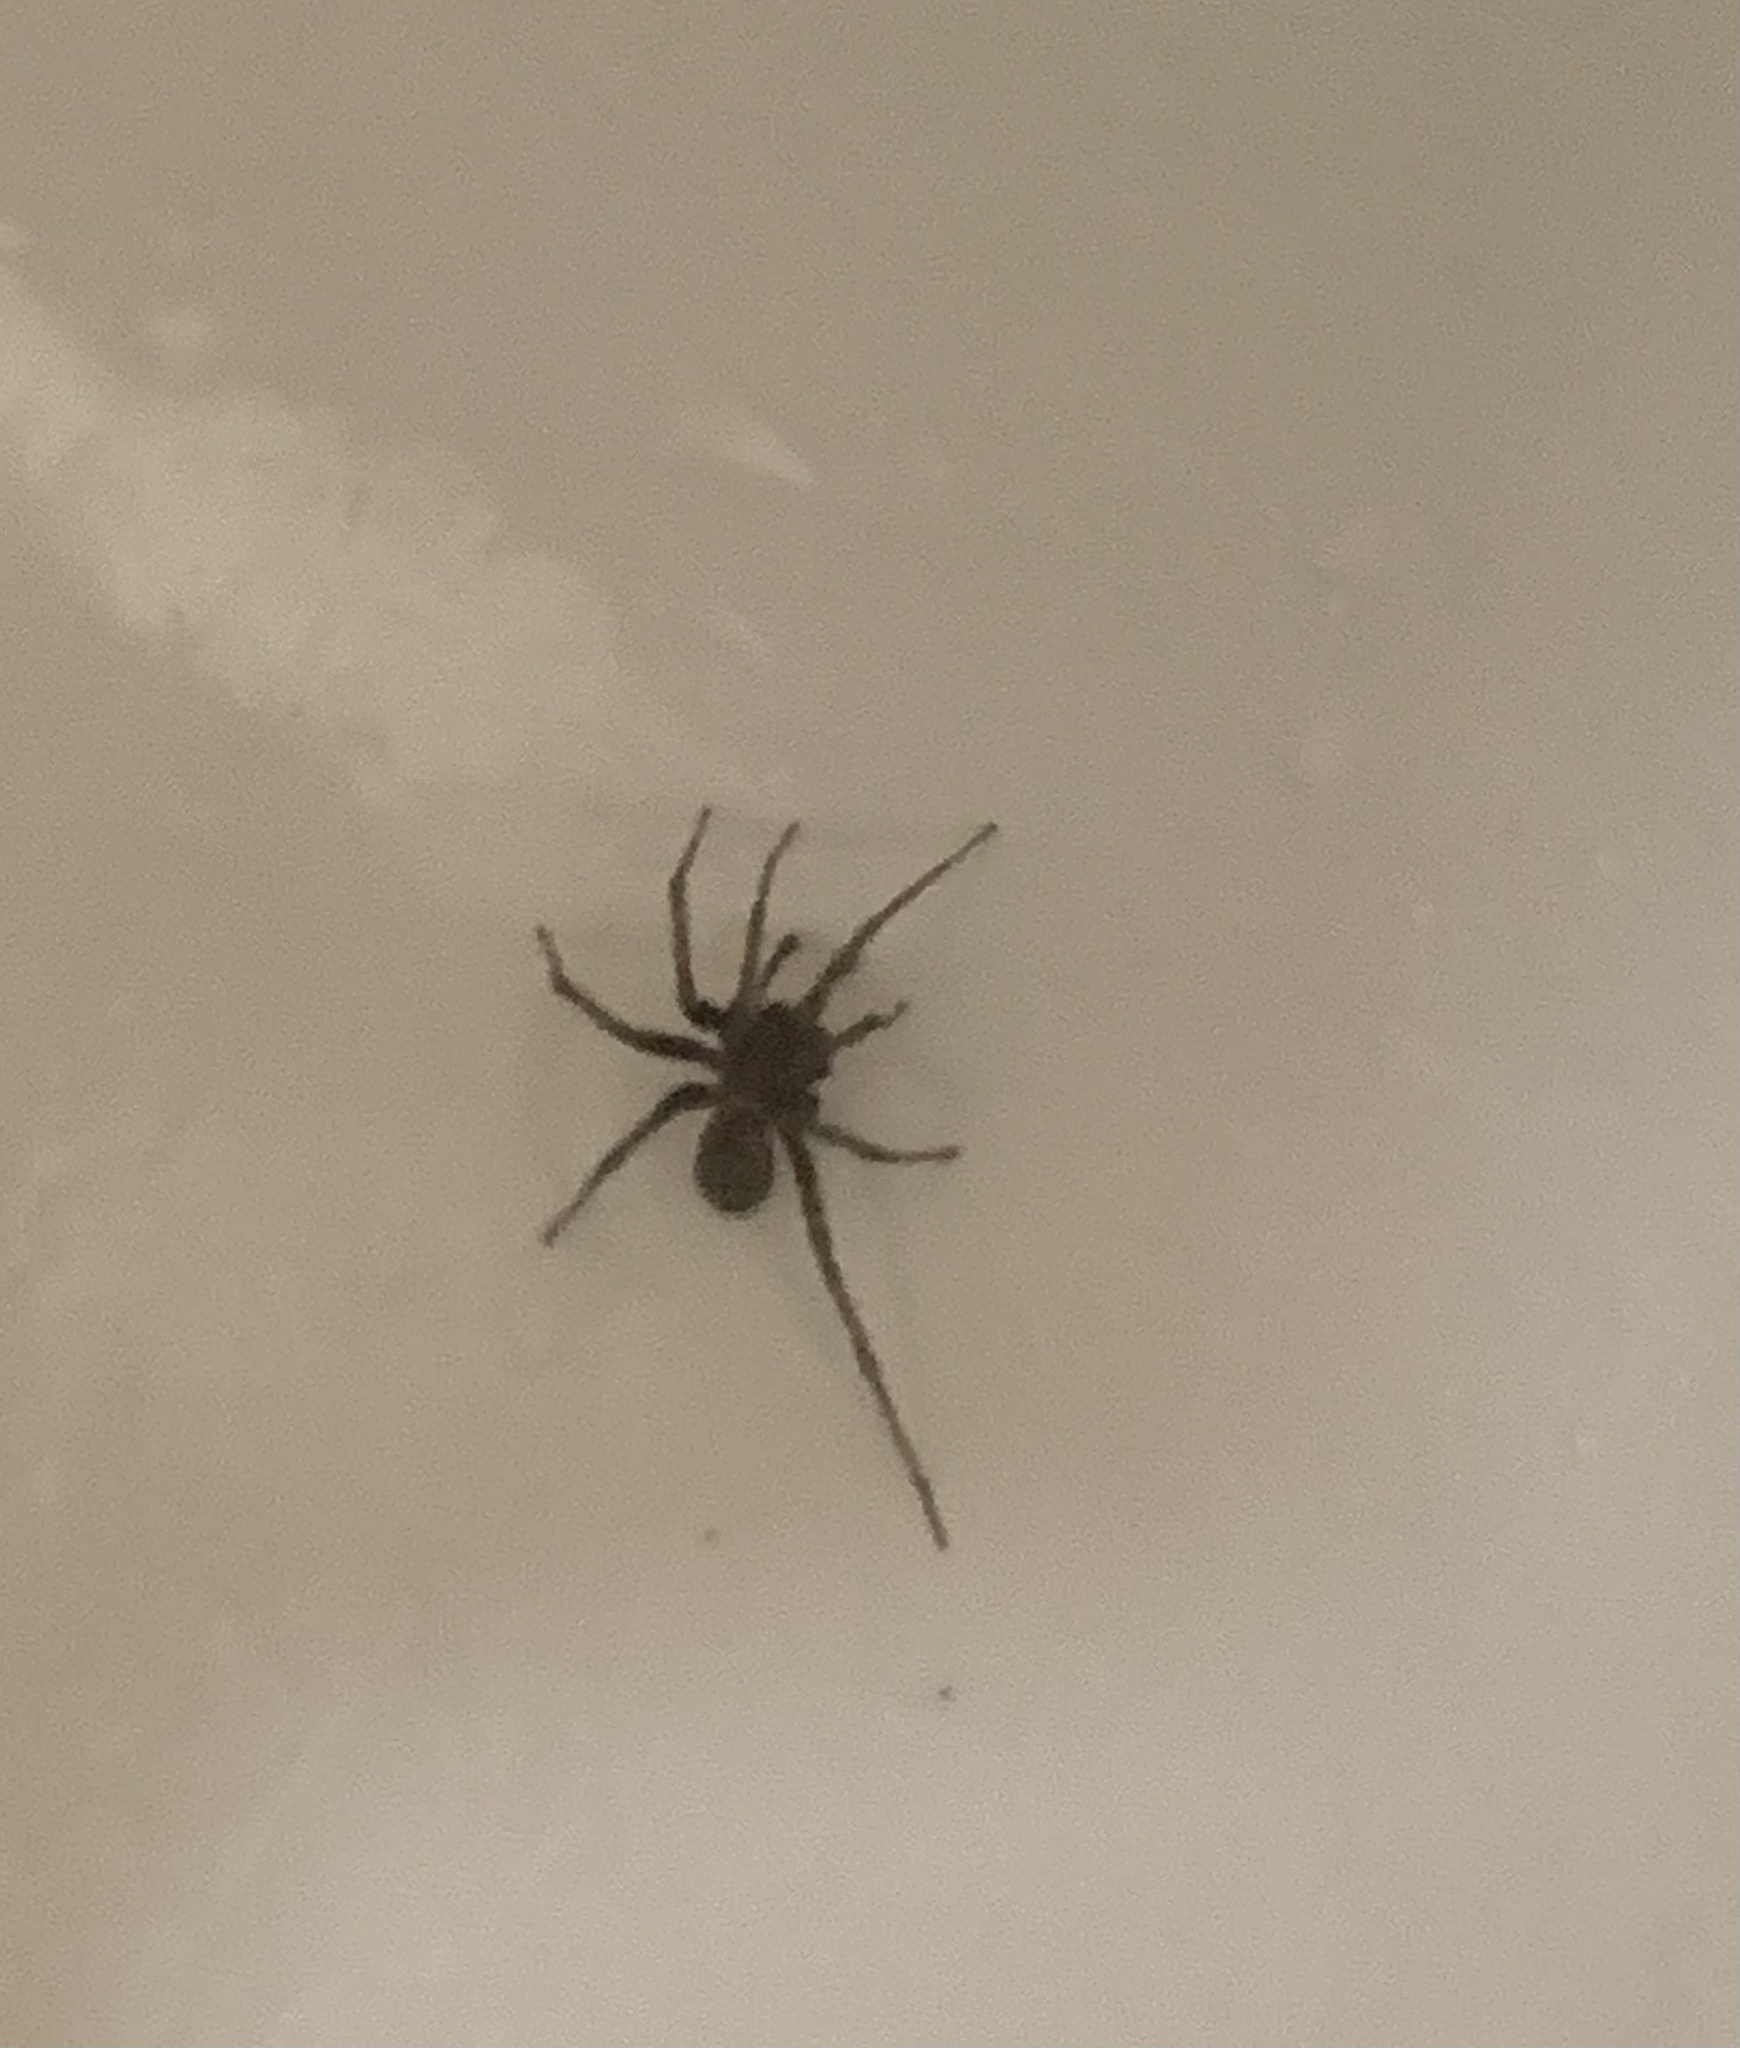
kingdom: Animalia
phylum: Arthropoda
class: Arachnida
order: Araneae
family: Agelenidae
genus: Tegenaria
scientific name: Tegenaria domestica
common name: Barn funnel weaver
